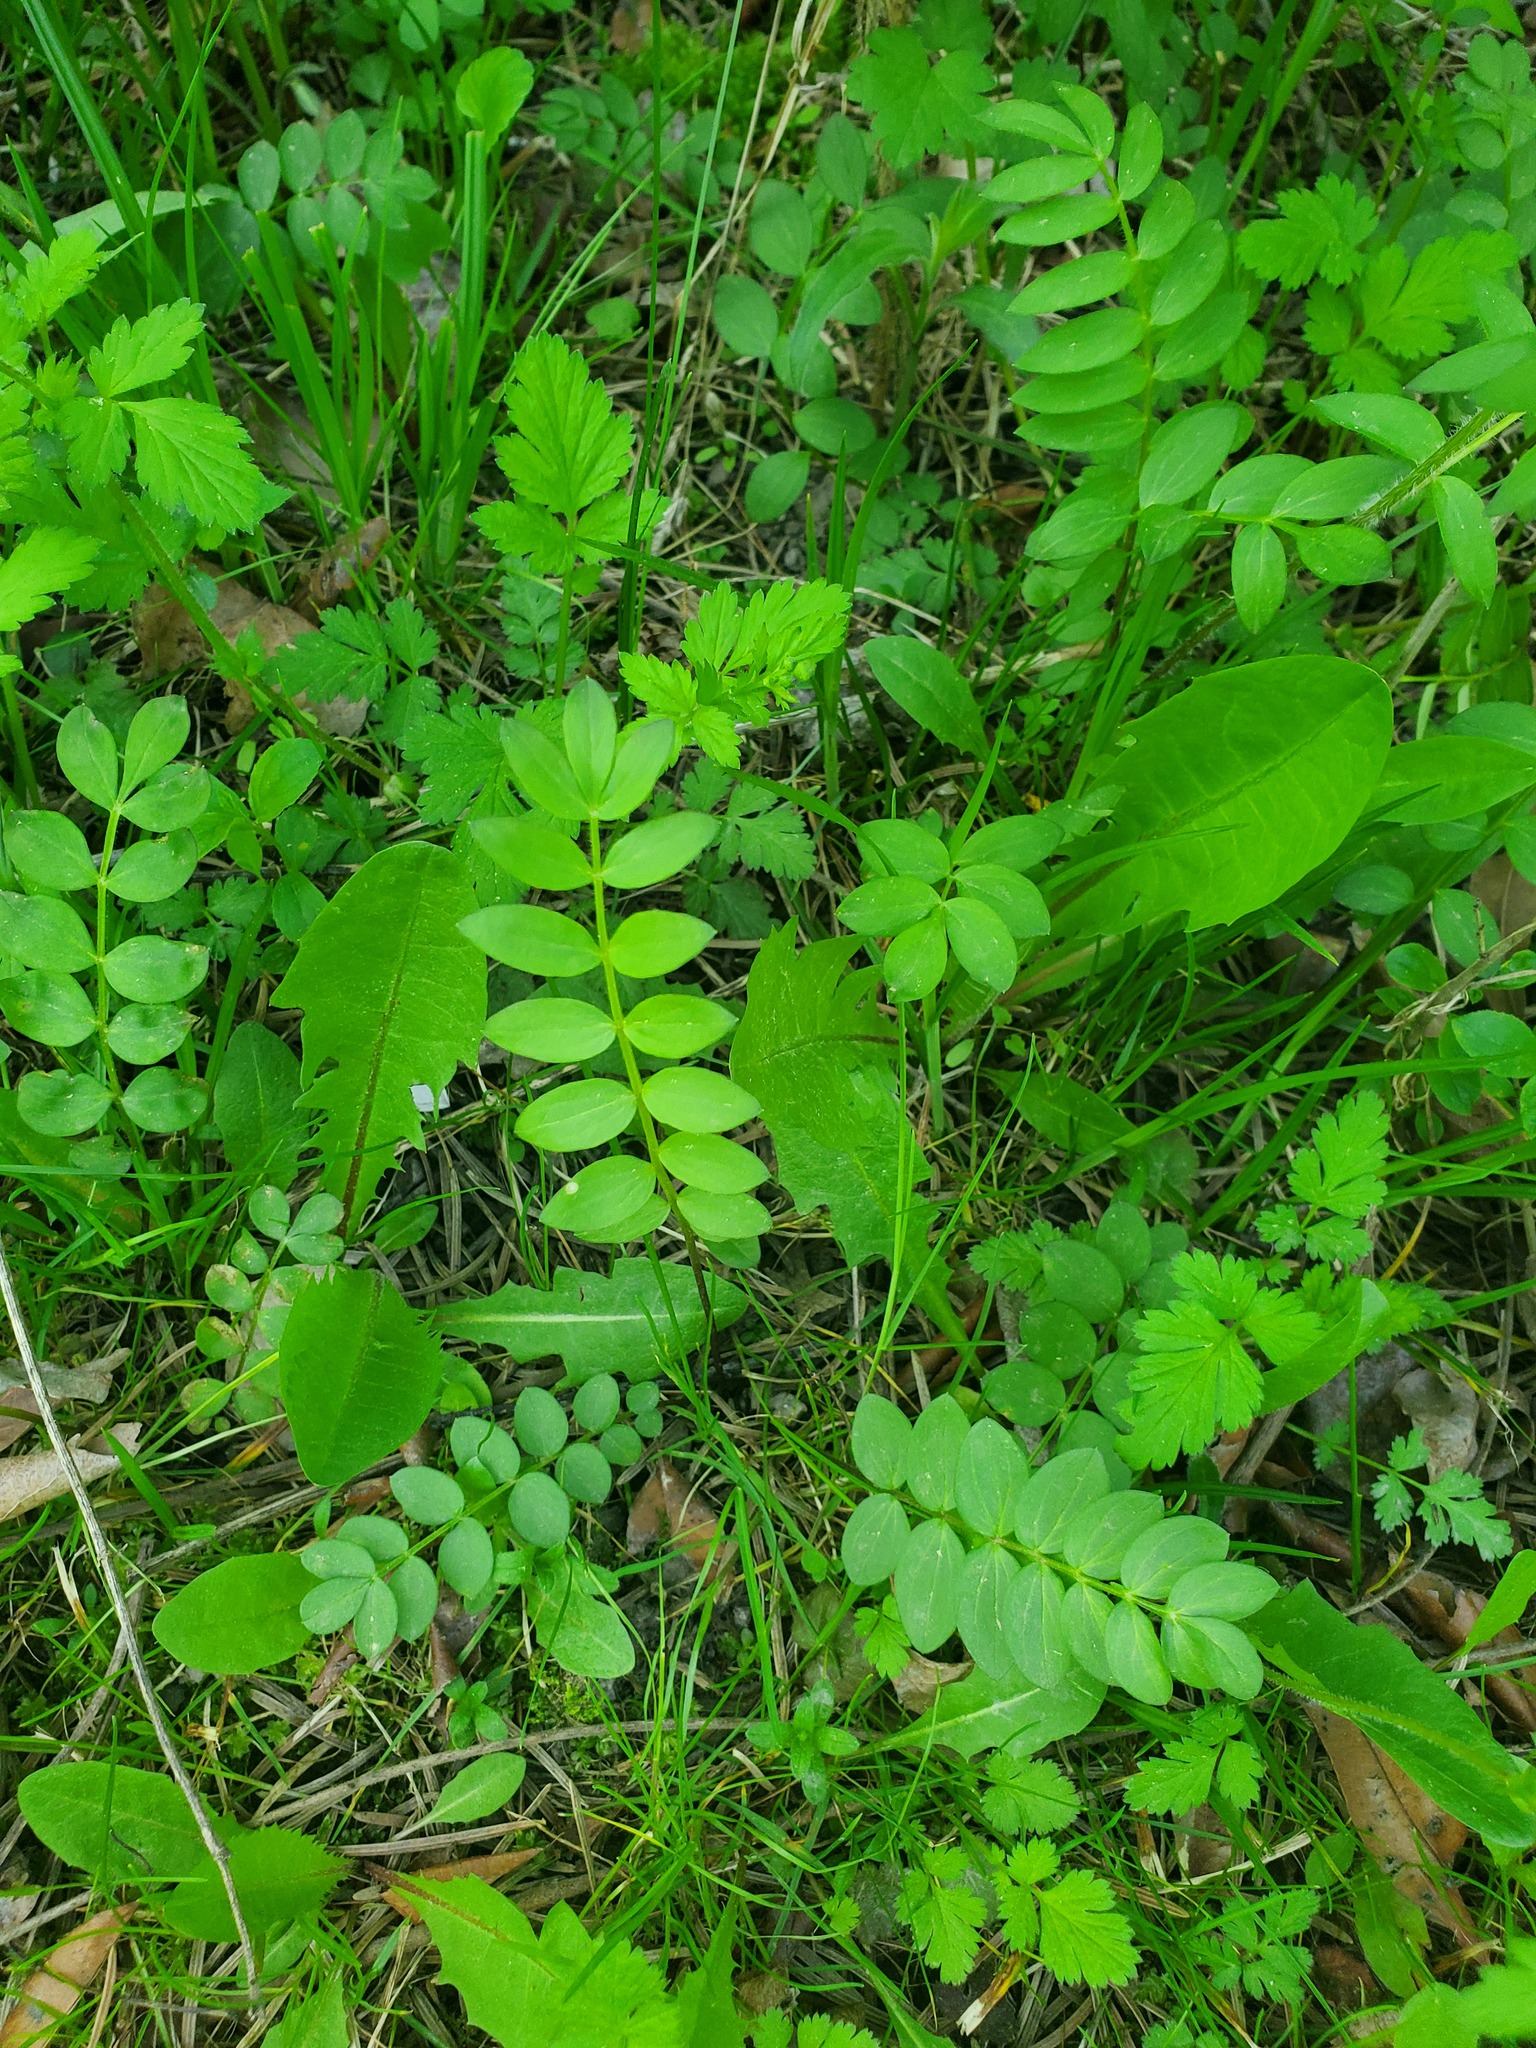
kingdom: Plantae
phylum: Tracheophyta
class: Magnoliopsida
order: Ericales
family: Polemoniaceae
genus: Polemonium
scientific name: Polemonium reptans
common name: Creeping jacob's-ladder
